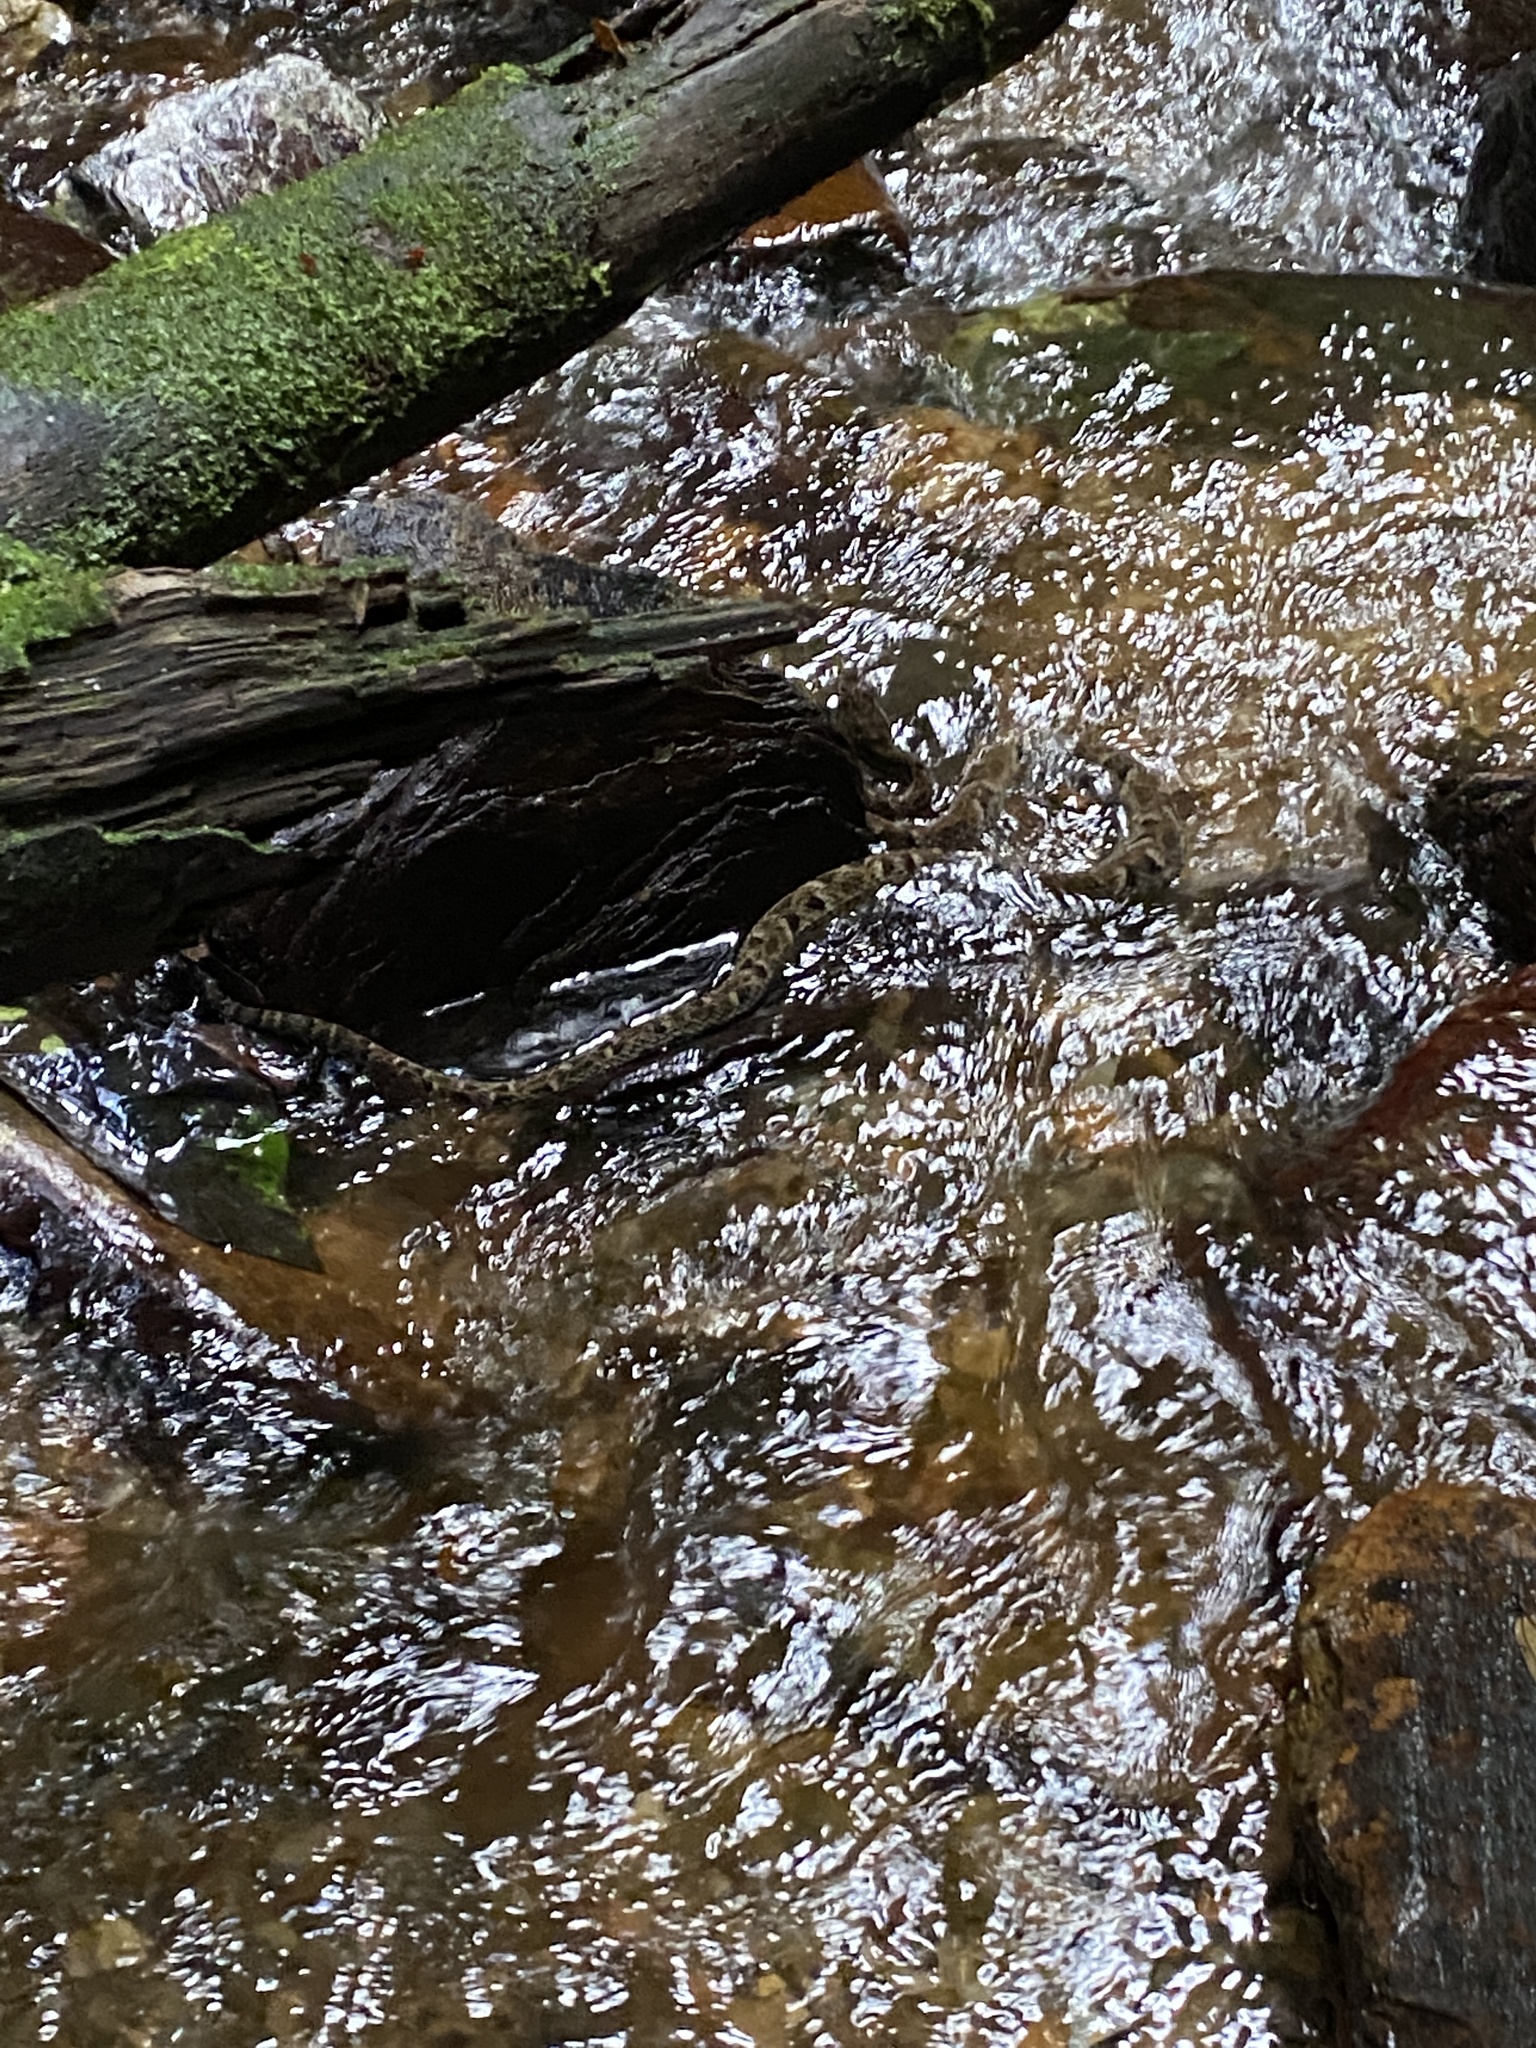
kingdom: Animalia
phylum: Chordata
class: Squamata
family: Viperidae
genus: Bothrops
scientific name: Bothrops atrox
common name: Common lancehead
